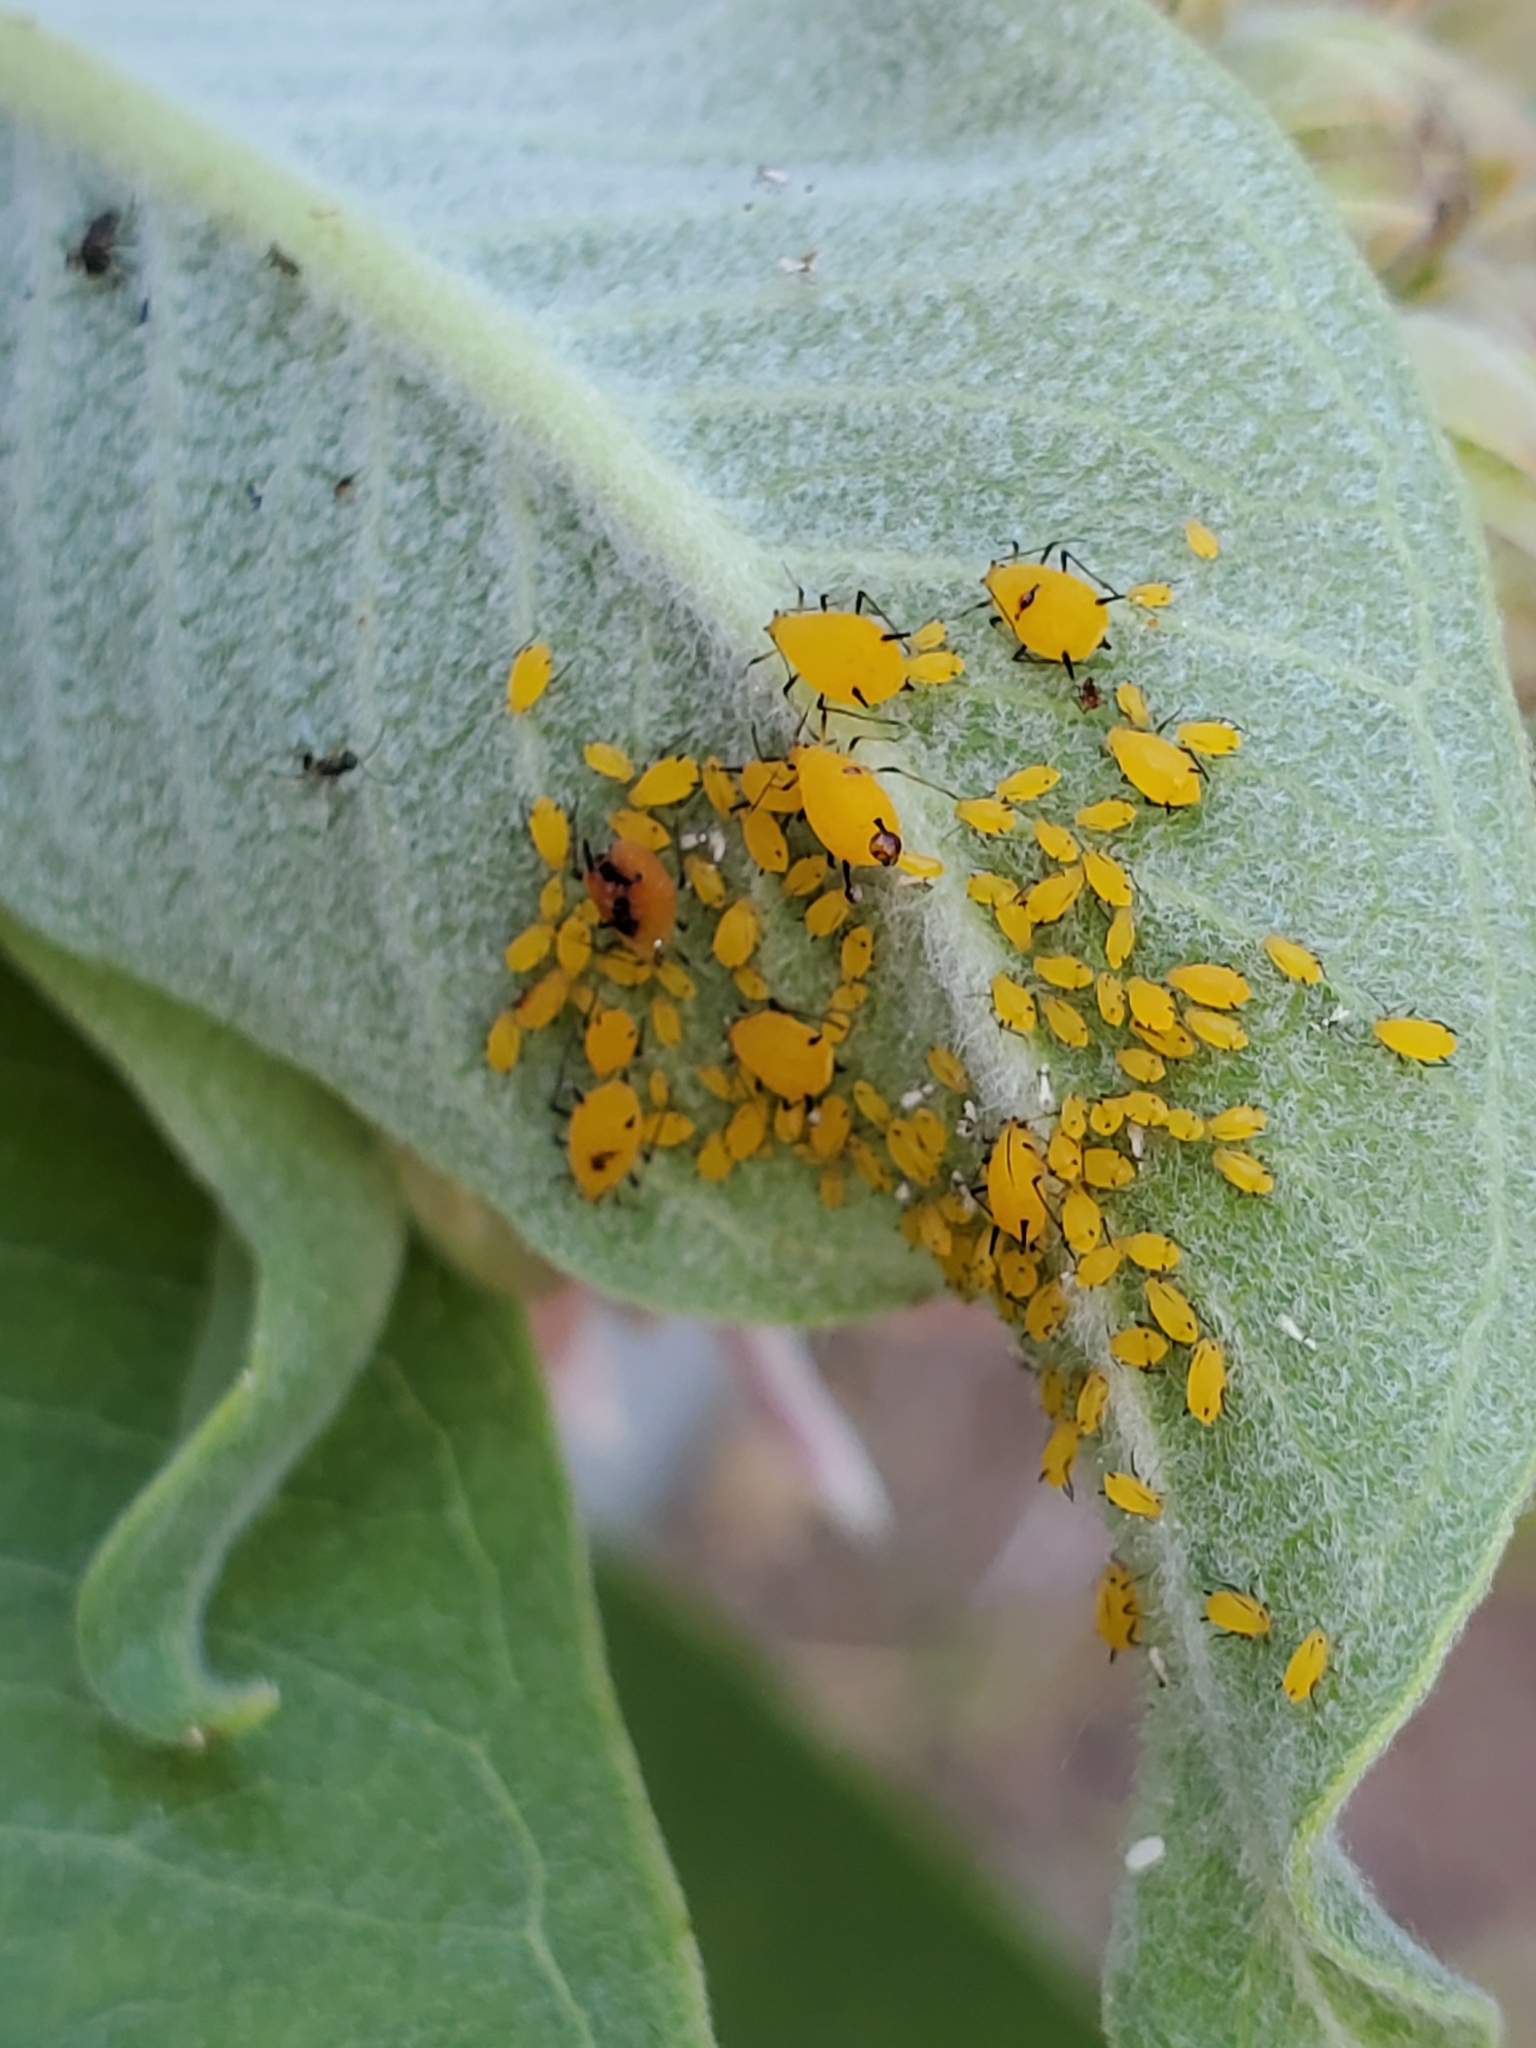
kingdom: Animalia
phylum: Arthropoda
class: Insecta
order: Hemiptera
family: Aphididae
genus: Aphis
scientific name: Aphis nerii
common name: Oleander aphid
